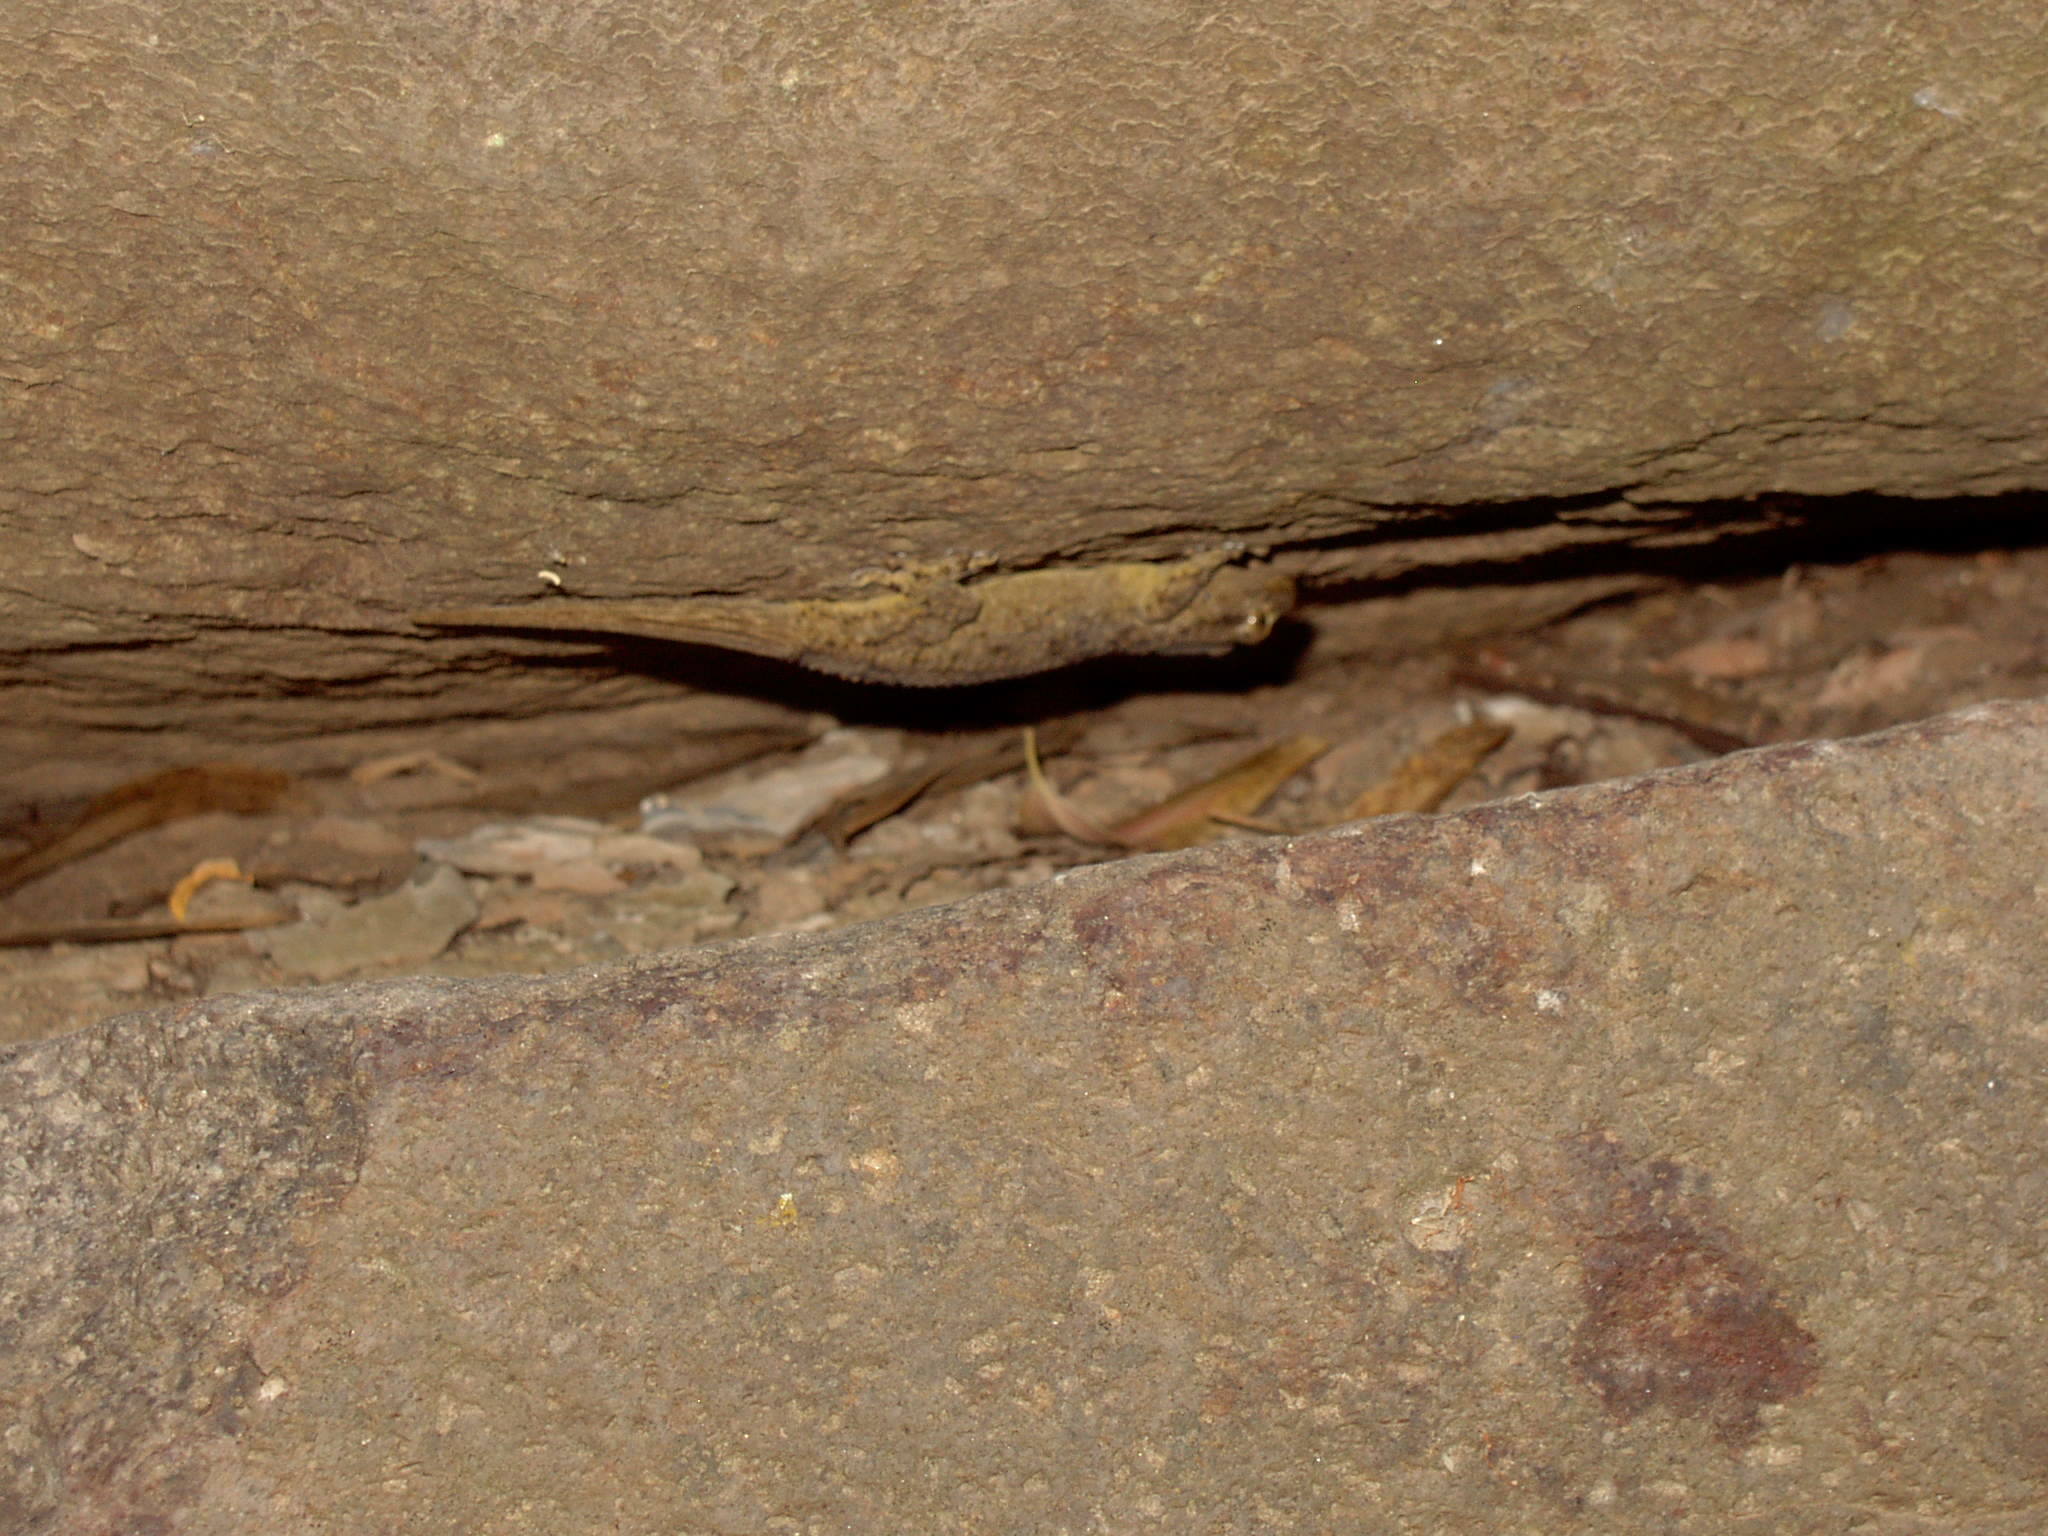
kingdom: Animalia
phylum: Chordata
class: Squamata
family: Phyllodactylidae
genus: Tarentola
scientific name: Tarentola mauritanica
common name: Moorish gecko
